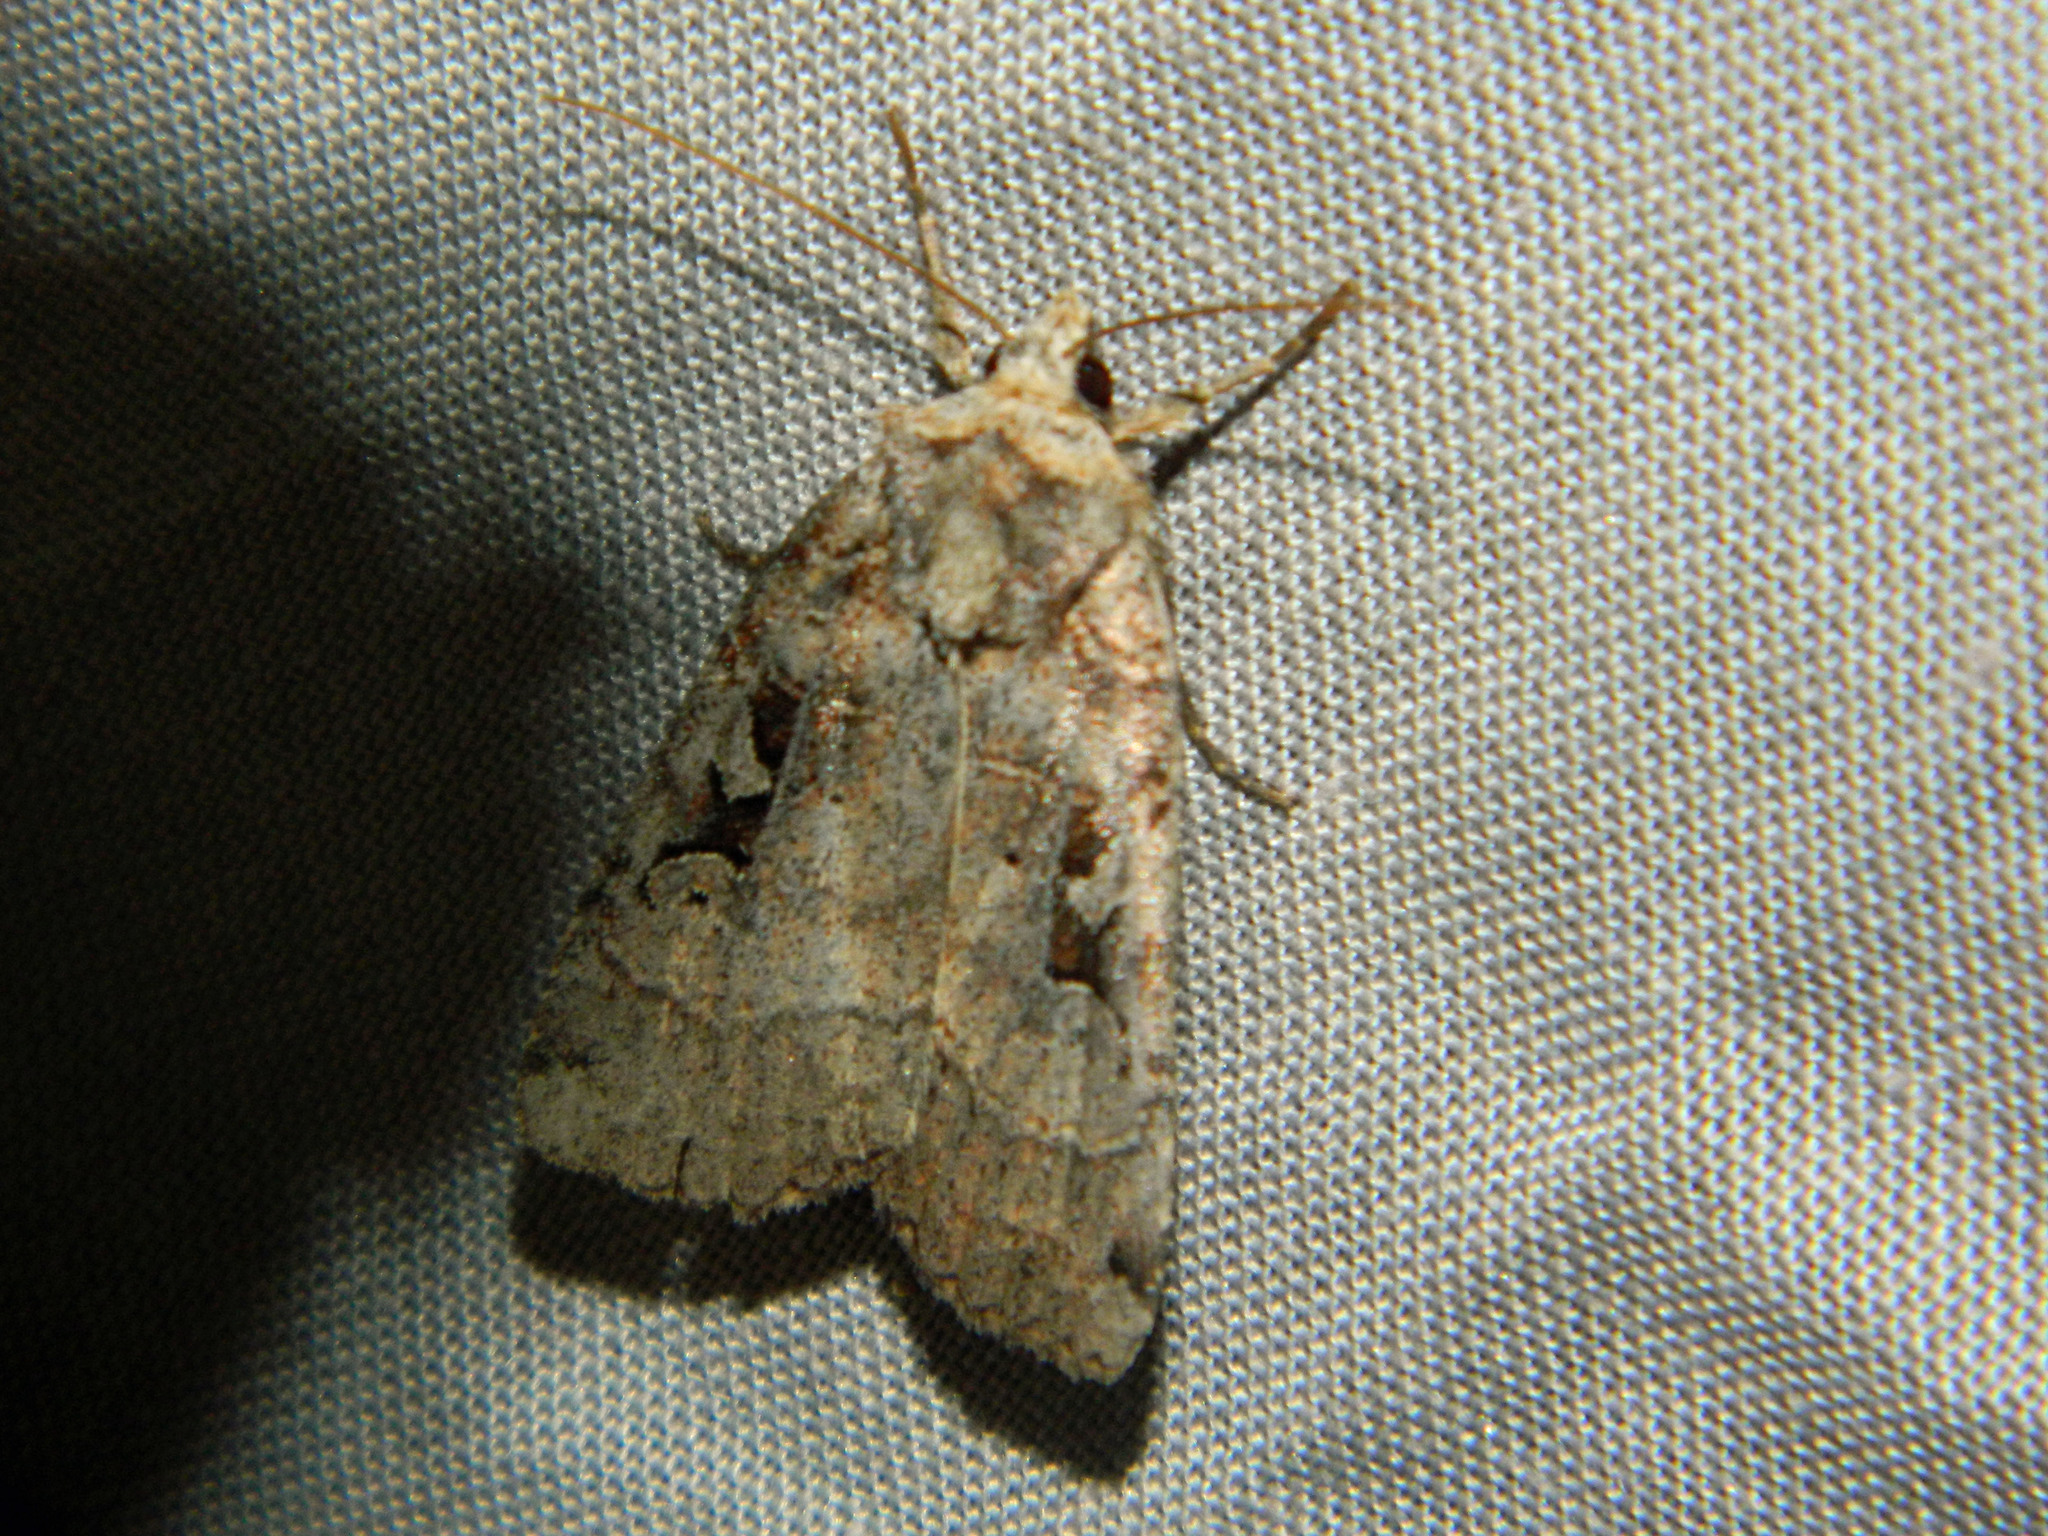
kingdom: Animalia
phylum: Arthropoda
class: Insecta
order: Lepidoptera
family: Noctuidae
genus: Xestia
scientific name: Xestia normaniana
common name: Norman's dart moth
